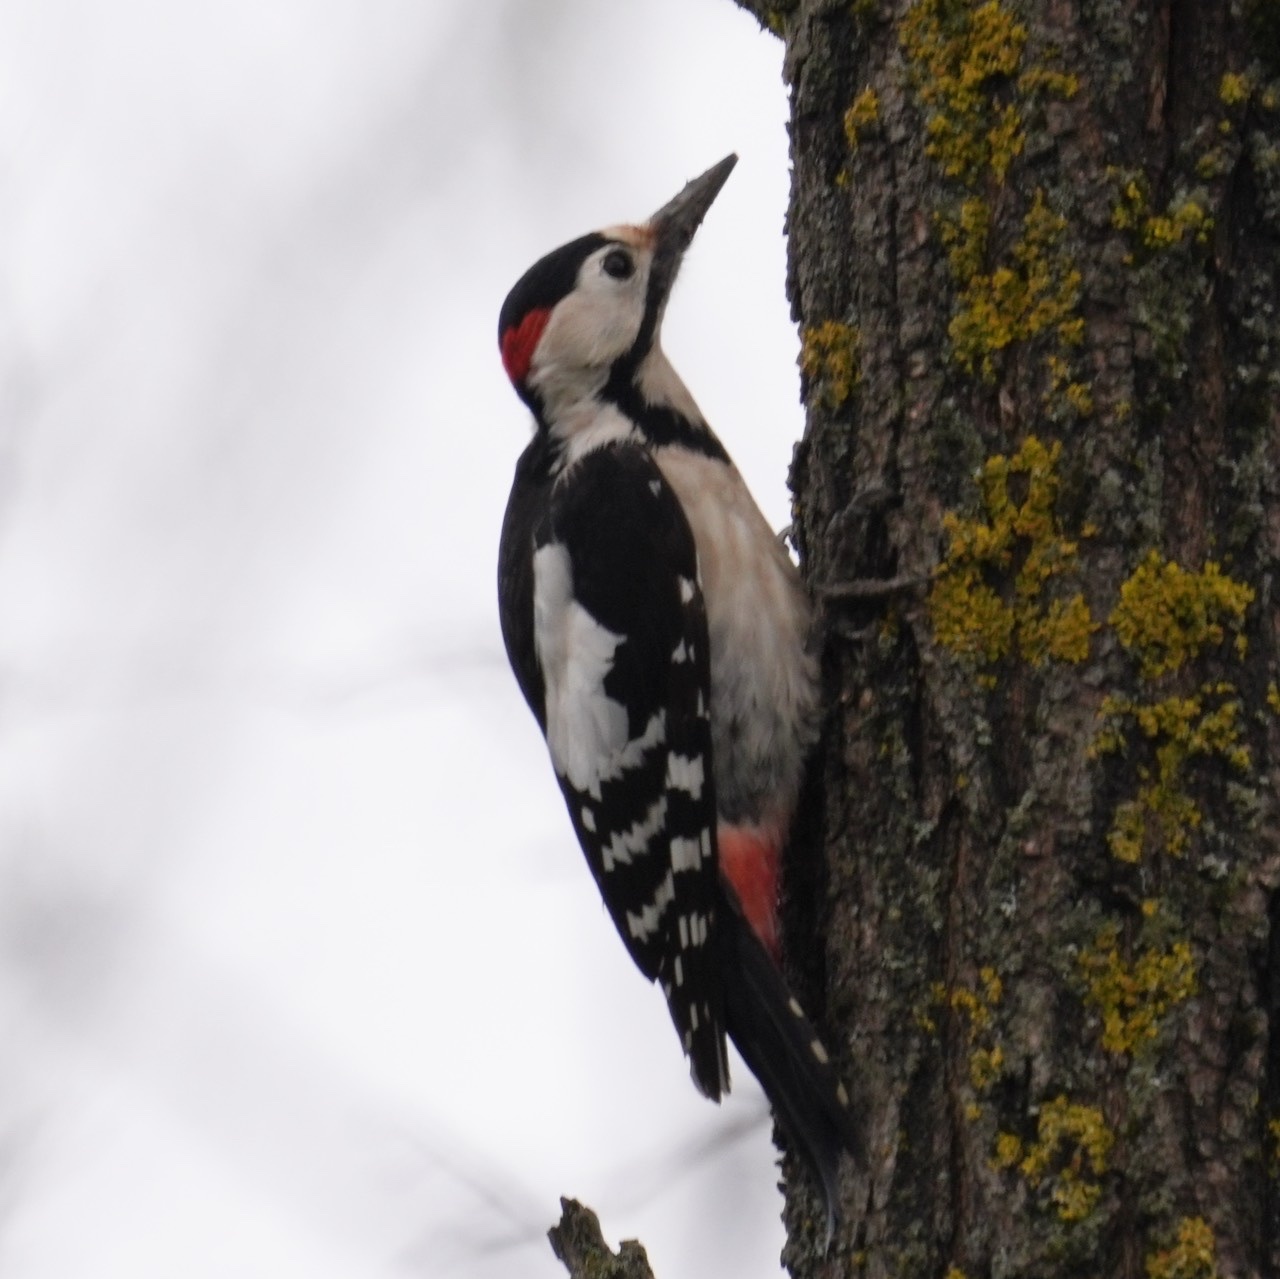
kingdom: Animalia
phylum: Chordata
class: Aves
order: Piciformes
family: Picidae
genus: Dendrocopos
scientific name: Dendrocopos syriacus
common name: Syrian woodpecker
